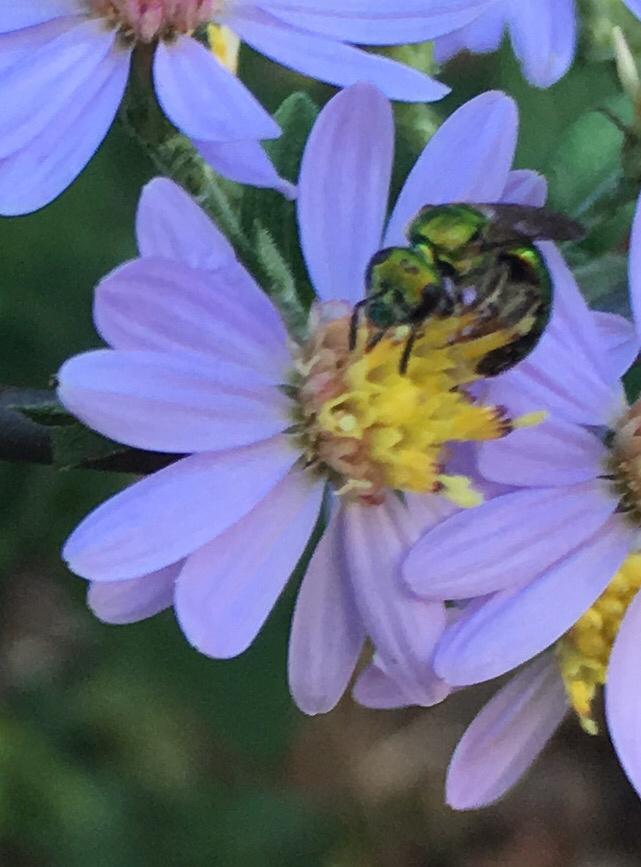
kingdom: Animalia
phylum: Arthropoda
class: Insecta
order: Hymenoptera
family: Halictidae
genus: Augochlora
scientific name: Augochlora pura
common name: Pure green sweat bee
